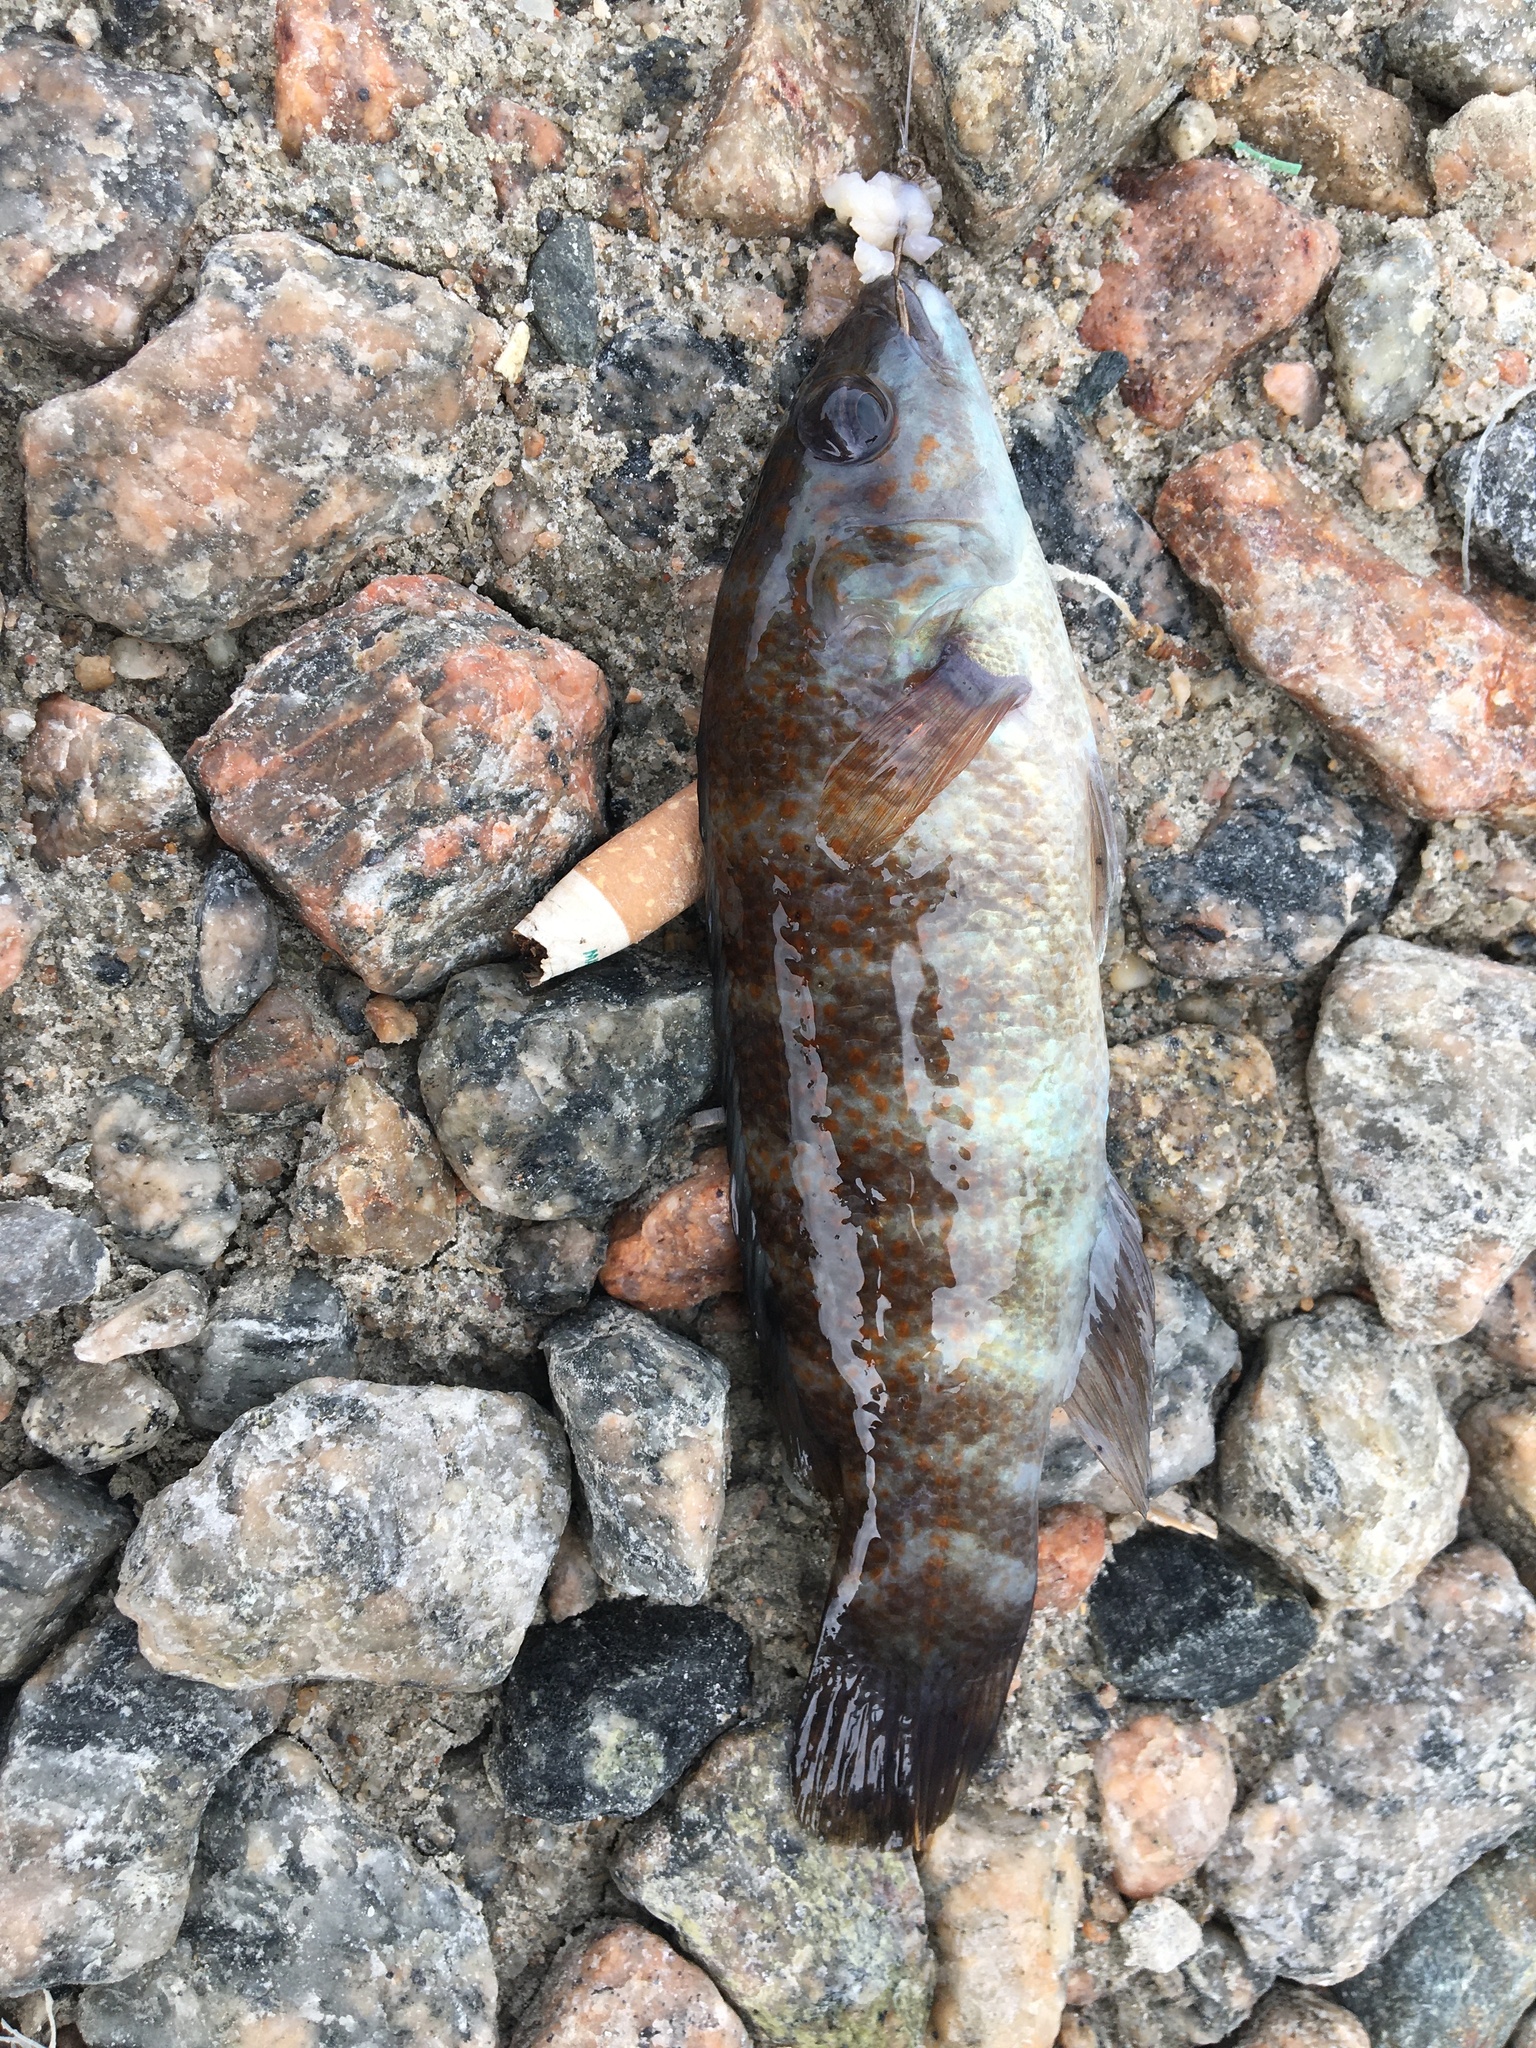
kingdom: Animalia
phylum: Chordata
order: Perciformes
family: Labridae
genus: Tautogolabrus
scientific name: Tautogolabrus adspersus
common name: Cunner
